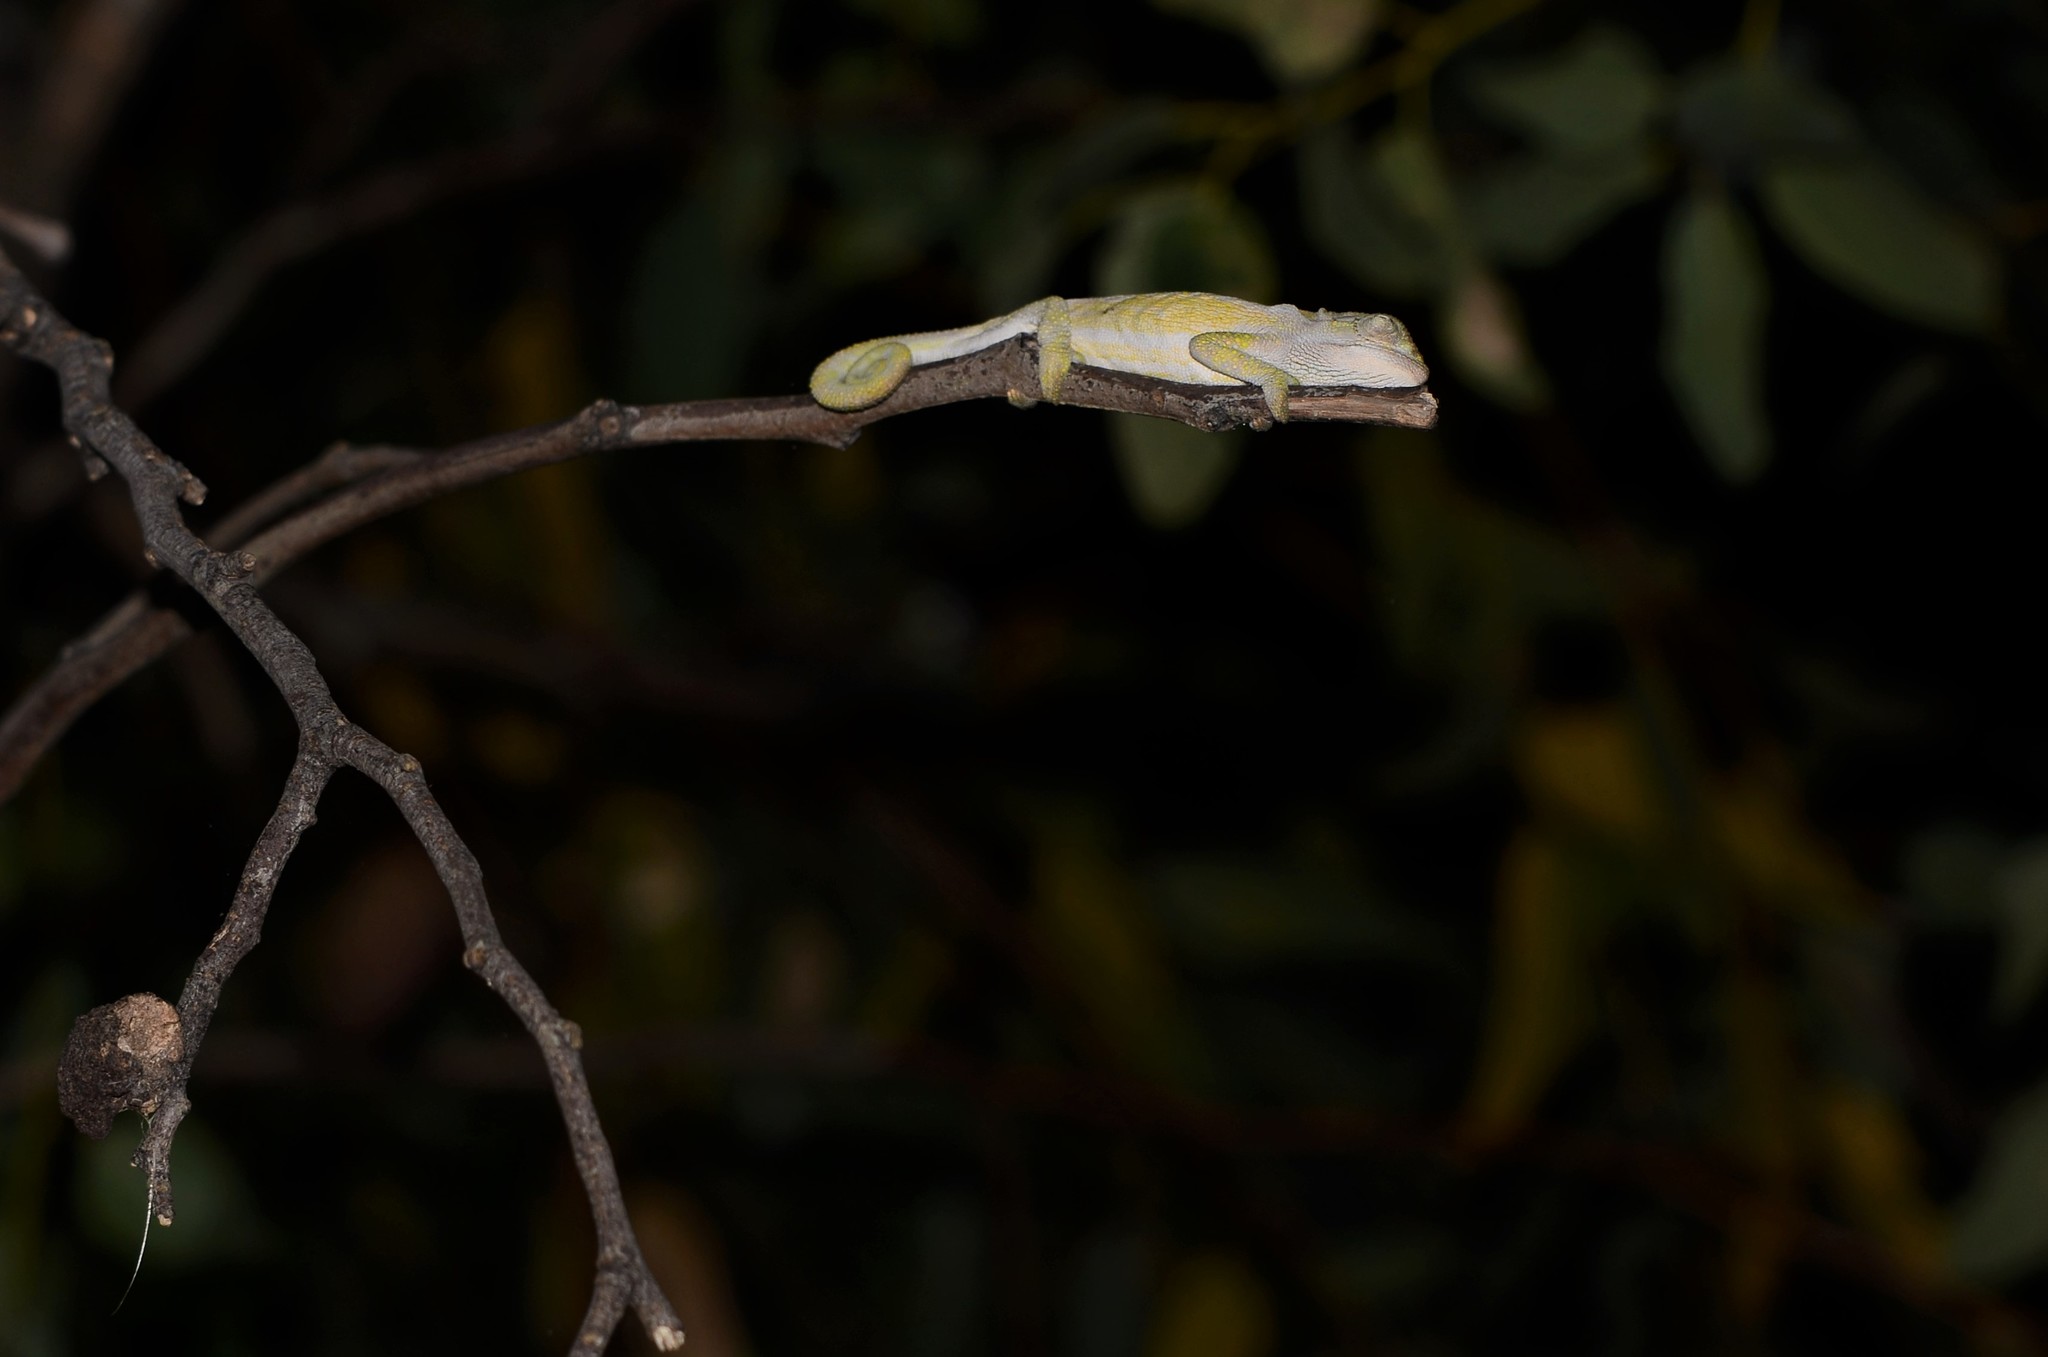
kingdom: Animalia
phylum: Chordata
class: Squamata
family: Chamaeleonidae
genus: Bradypodion
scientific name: Bradypodion pumilum
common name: Cape dwarf chameleon
